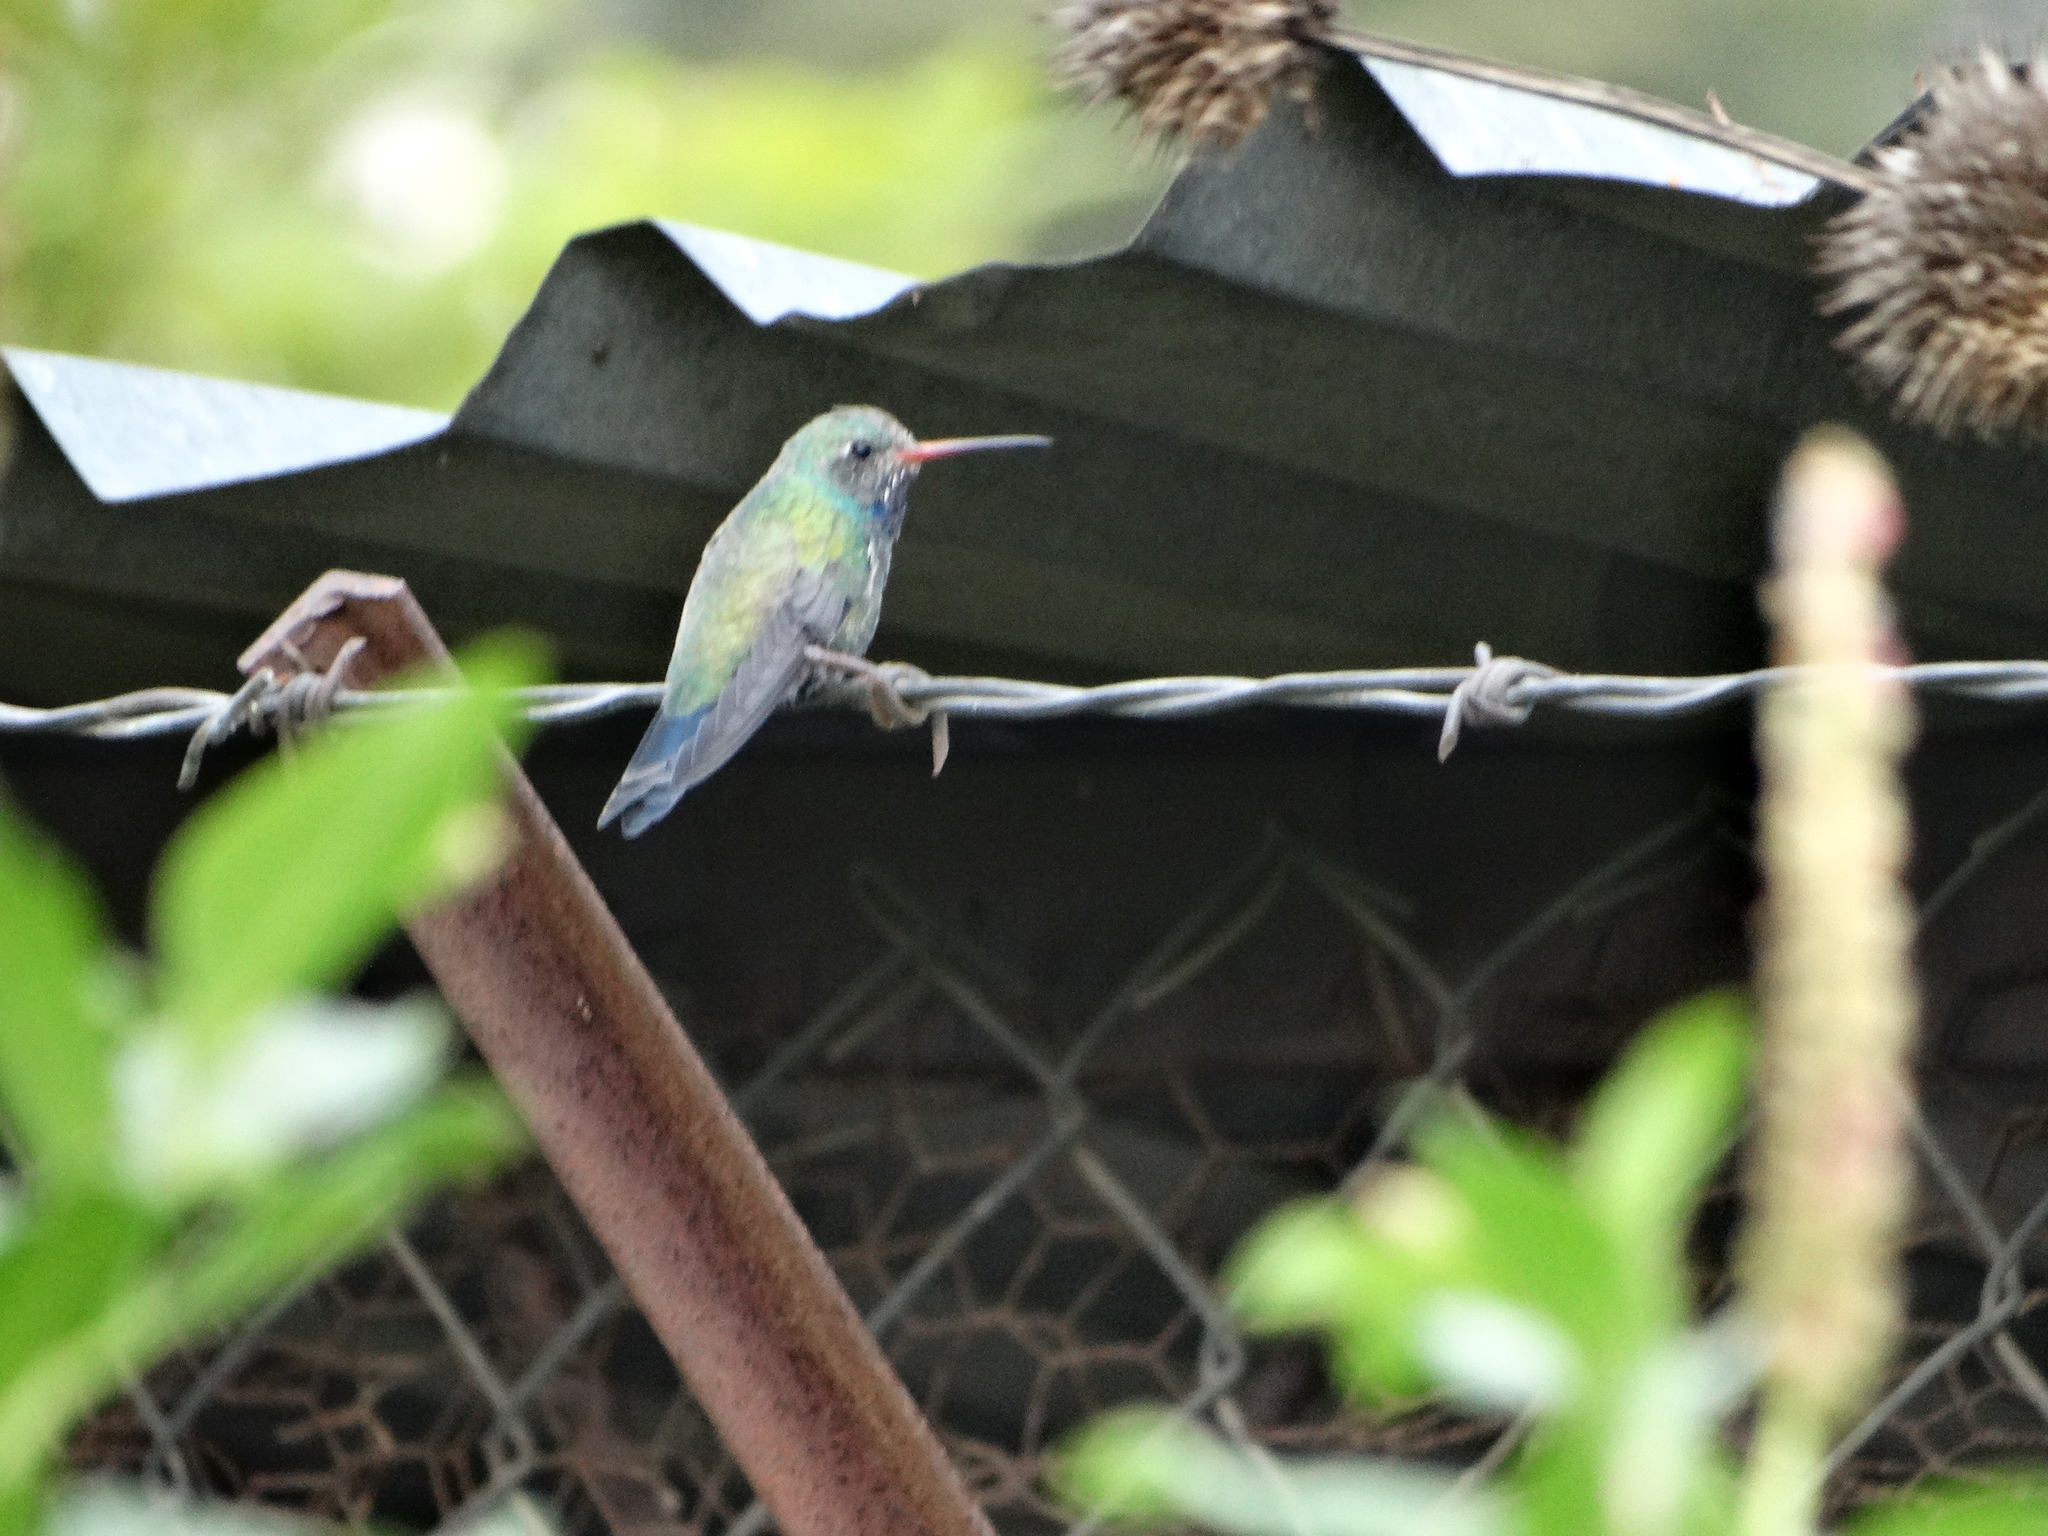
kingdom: Animalia
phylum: Chordata
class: Aves
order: Apodiformes
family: Trochilidae
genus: Cynanthus
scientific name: Cynanthus latirostris
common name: Broad-billed hummingbird
